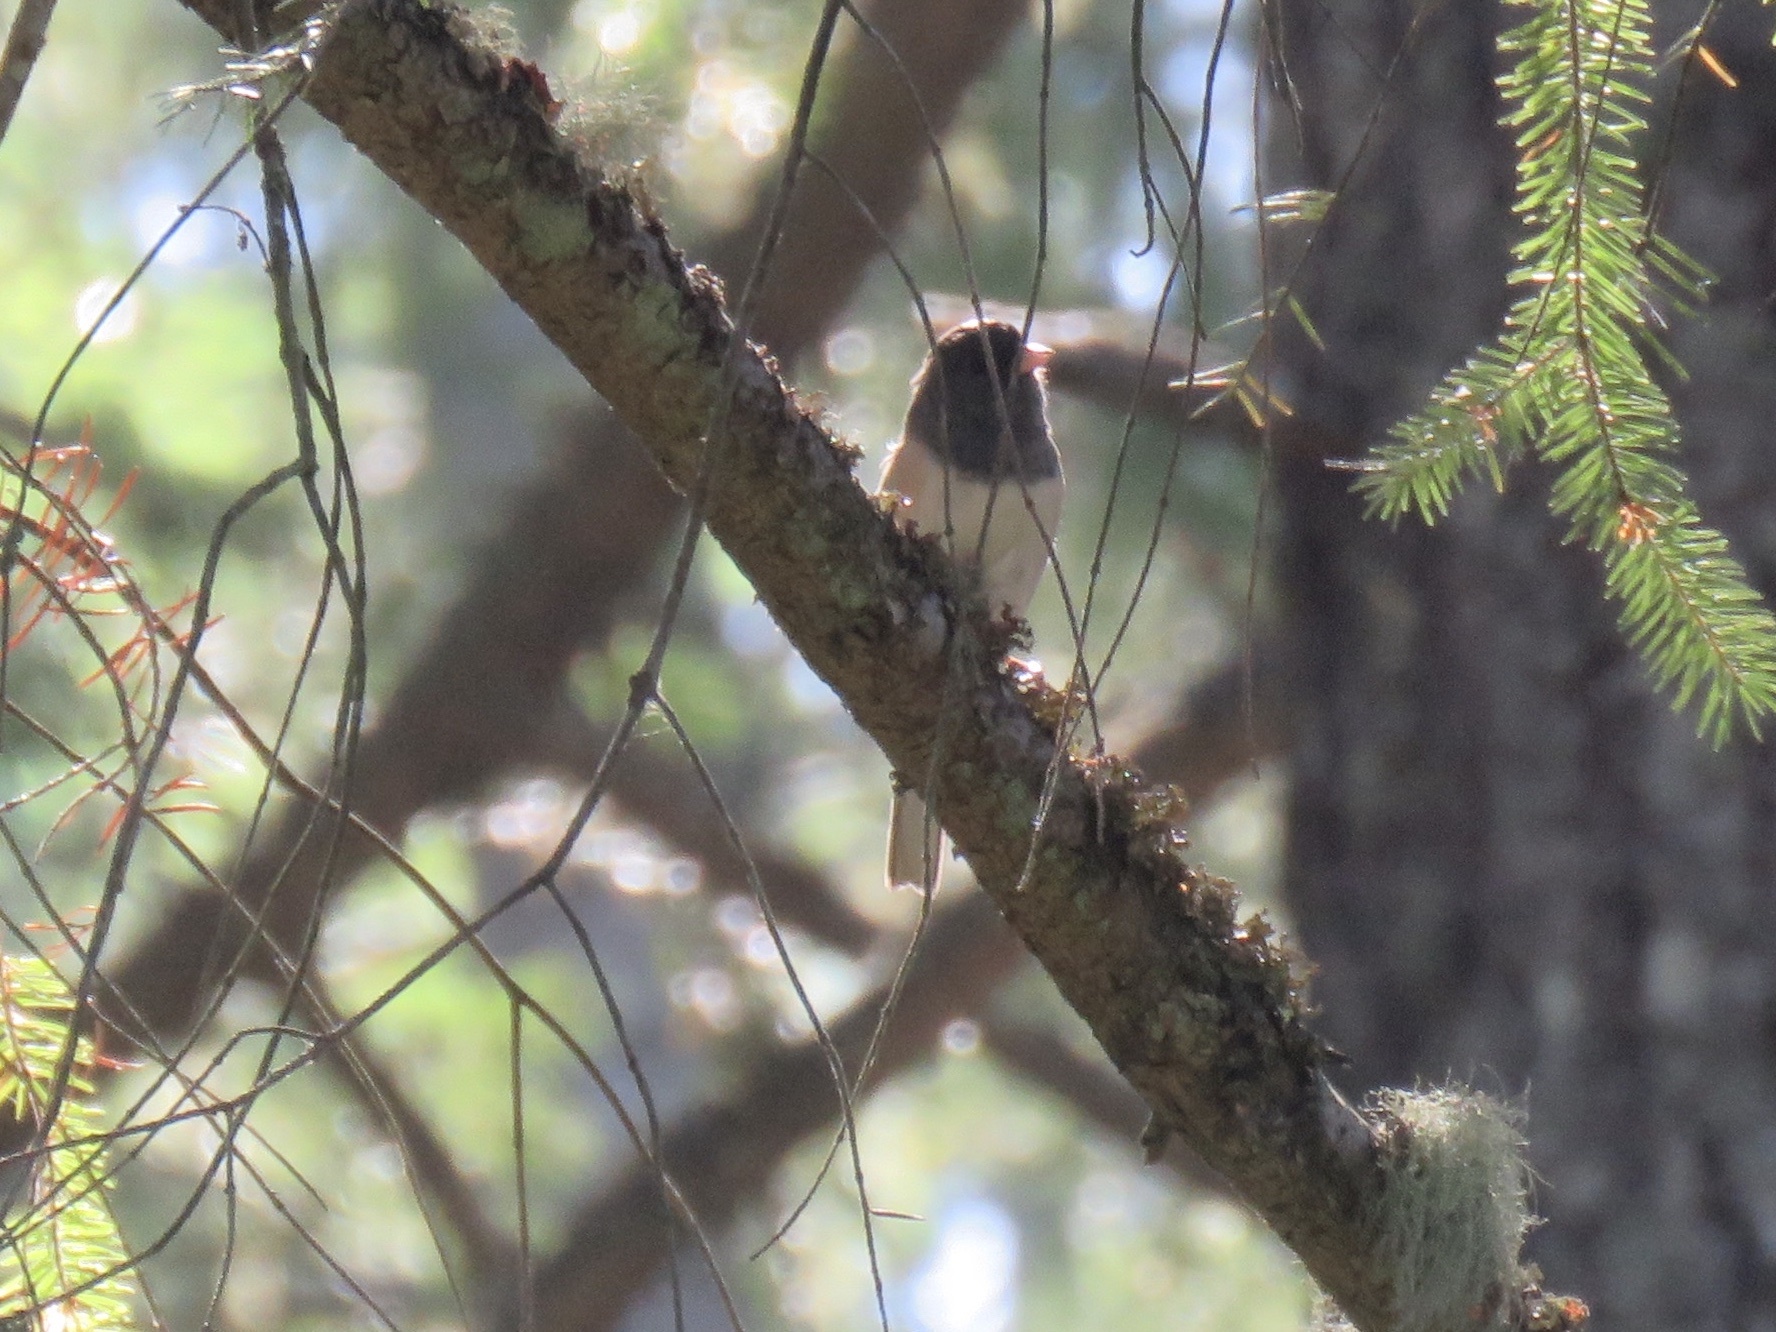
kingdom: Animalia
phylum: Chordata
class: Aves
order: Passeriformes
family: Passerellidae
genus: Junco
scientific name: Junco hyemalis
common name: Dark-eyed junco
